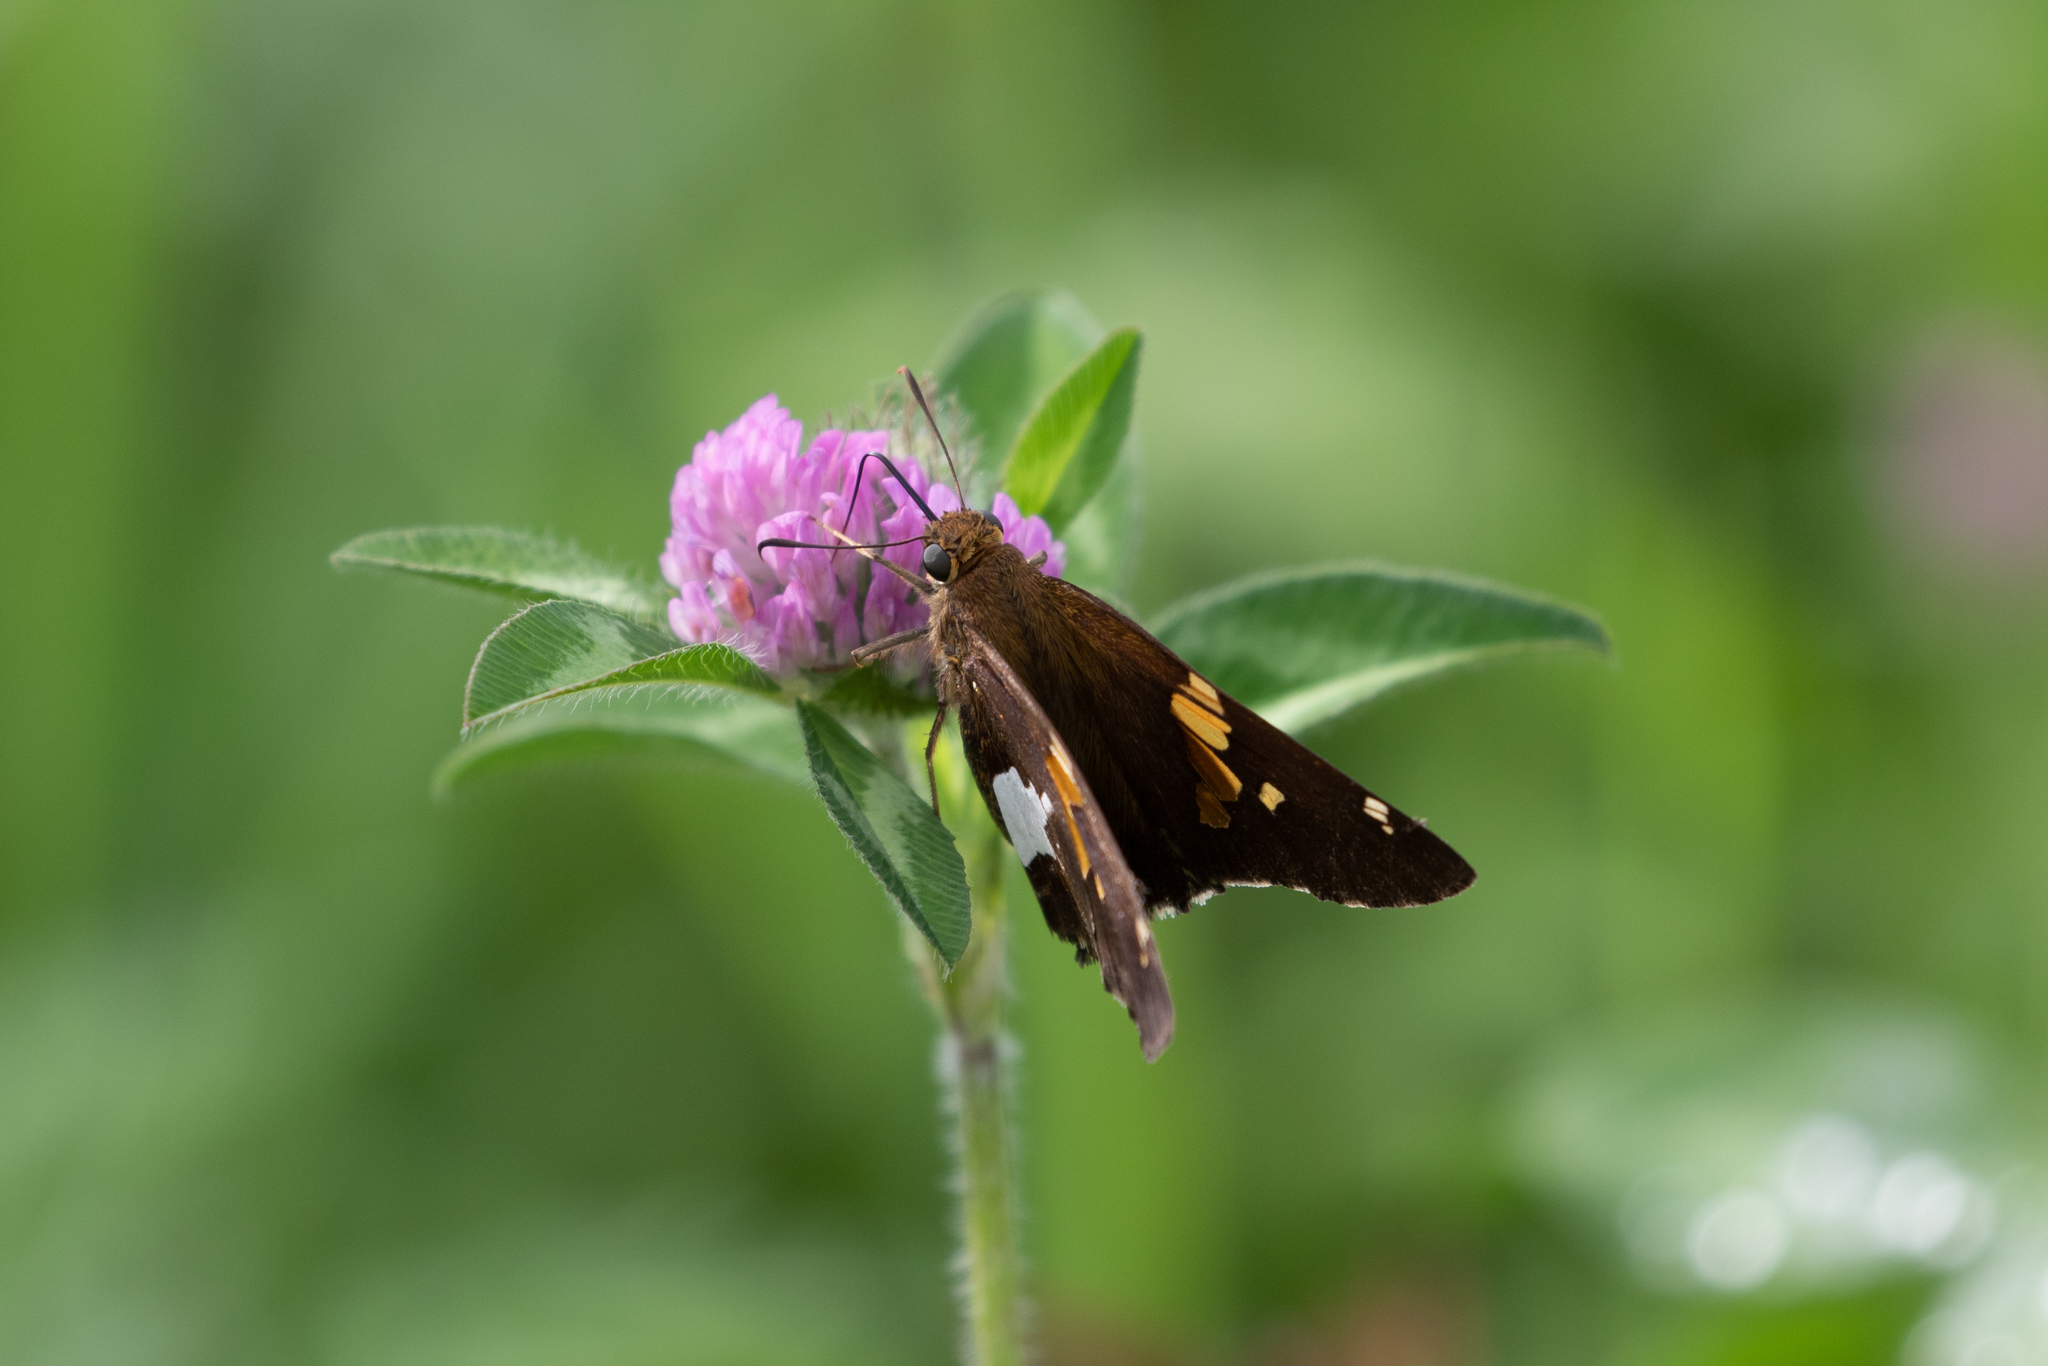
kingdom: Animalia
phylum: Arthropoda
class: Insecta
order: Lepidoptera
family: Hesperiidae
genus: Epargyreus
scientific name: Epargyreus clarus
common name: Silver-spotted skipper
